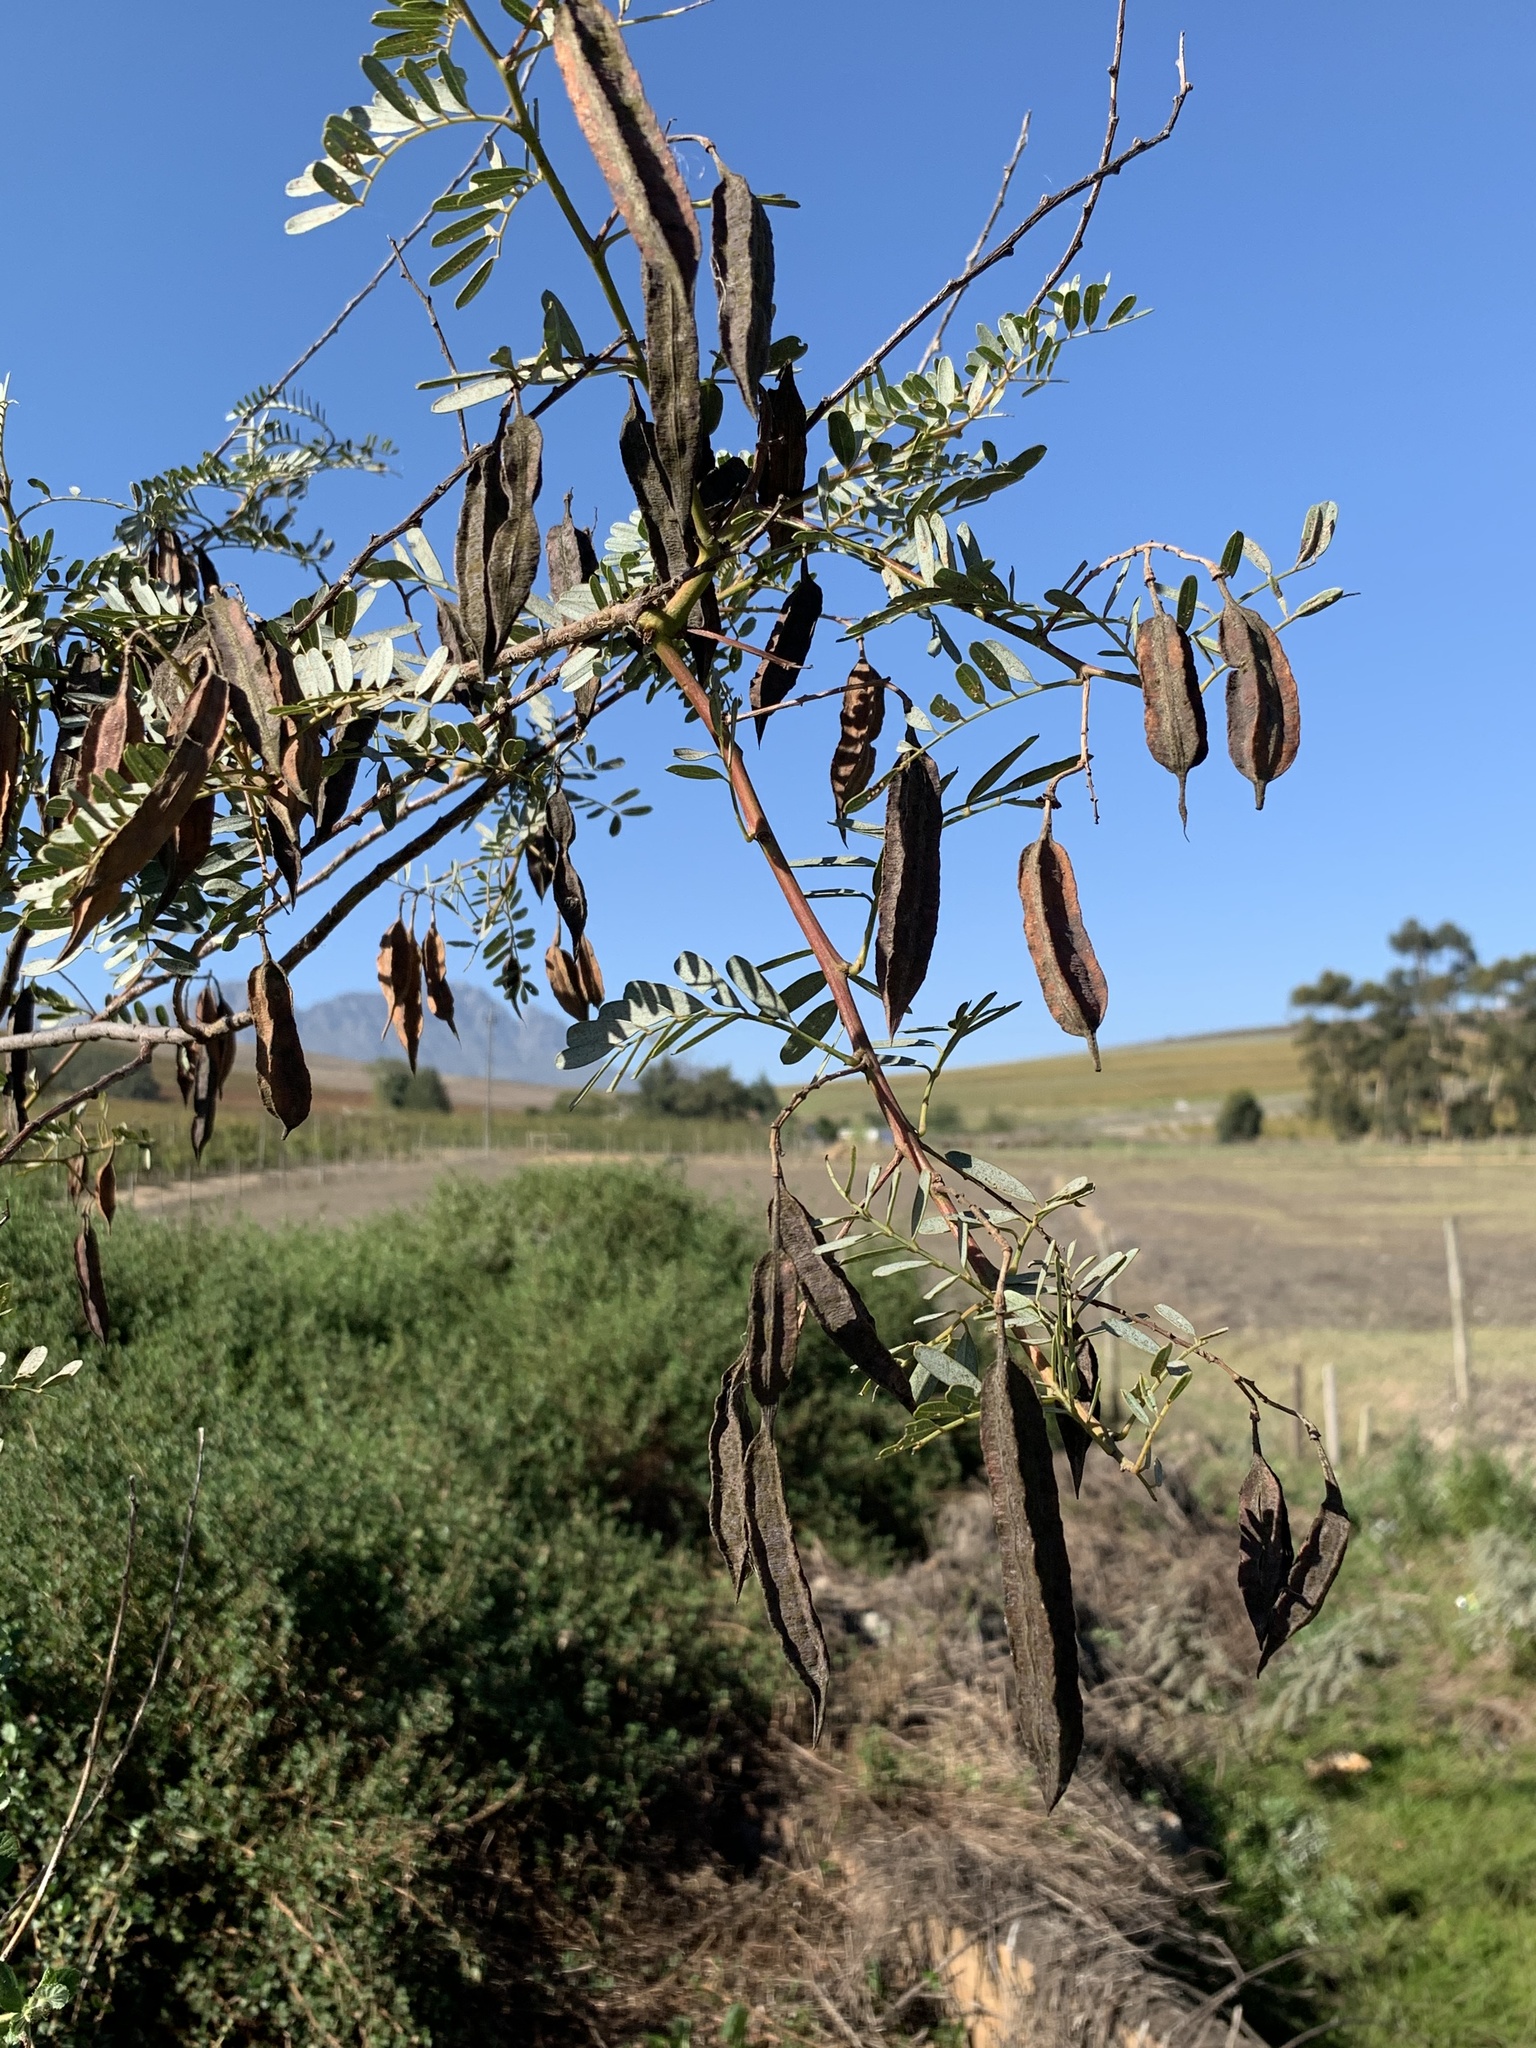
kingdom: Plantae
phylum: Tracheophyta
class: Magnoliopsida
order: Fabales
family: Fabaceae
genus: Sesbania
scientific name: Sesbania punicea
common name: Rattlebox
